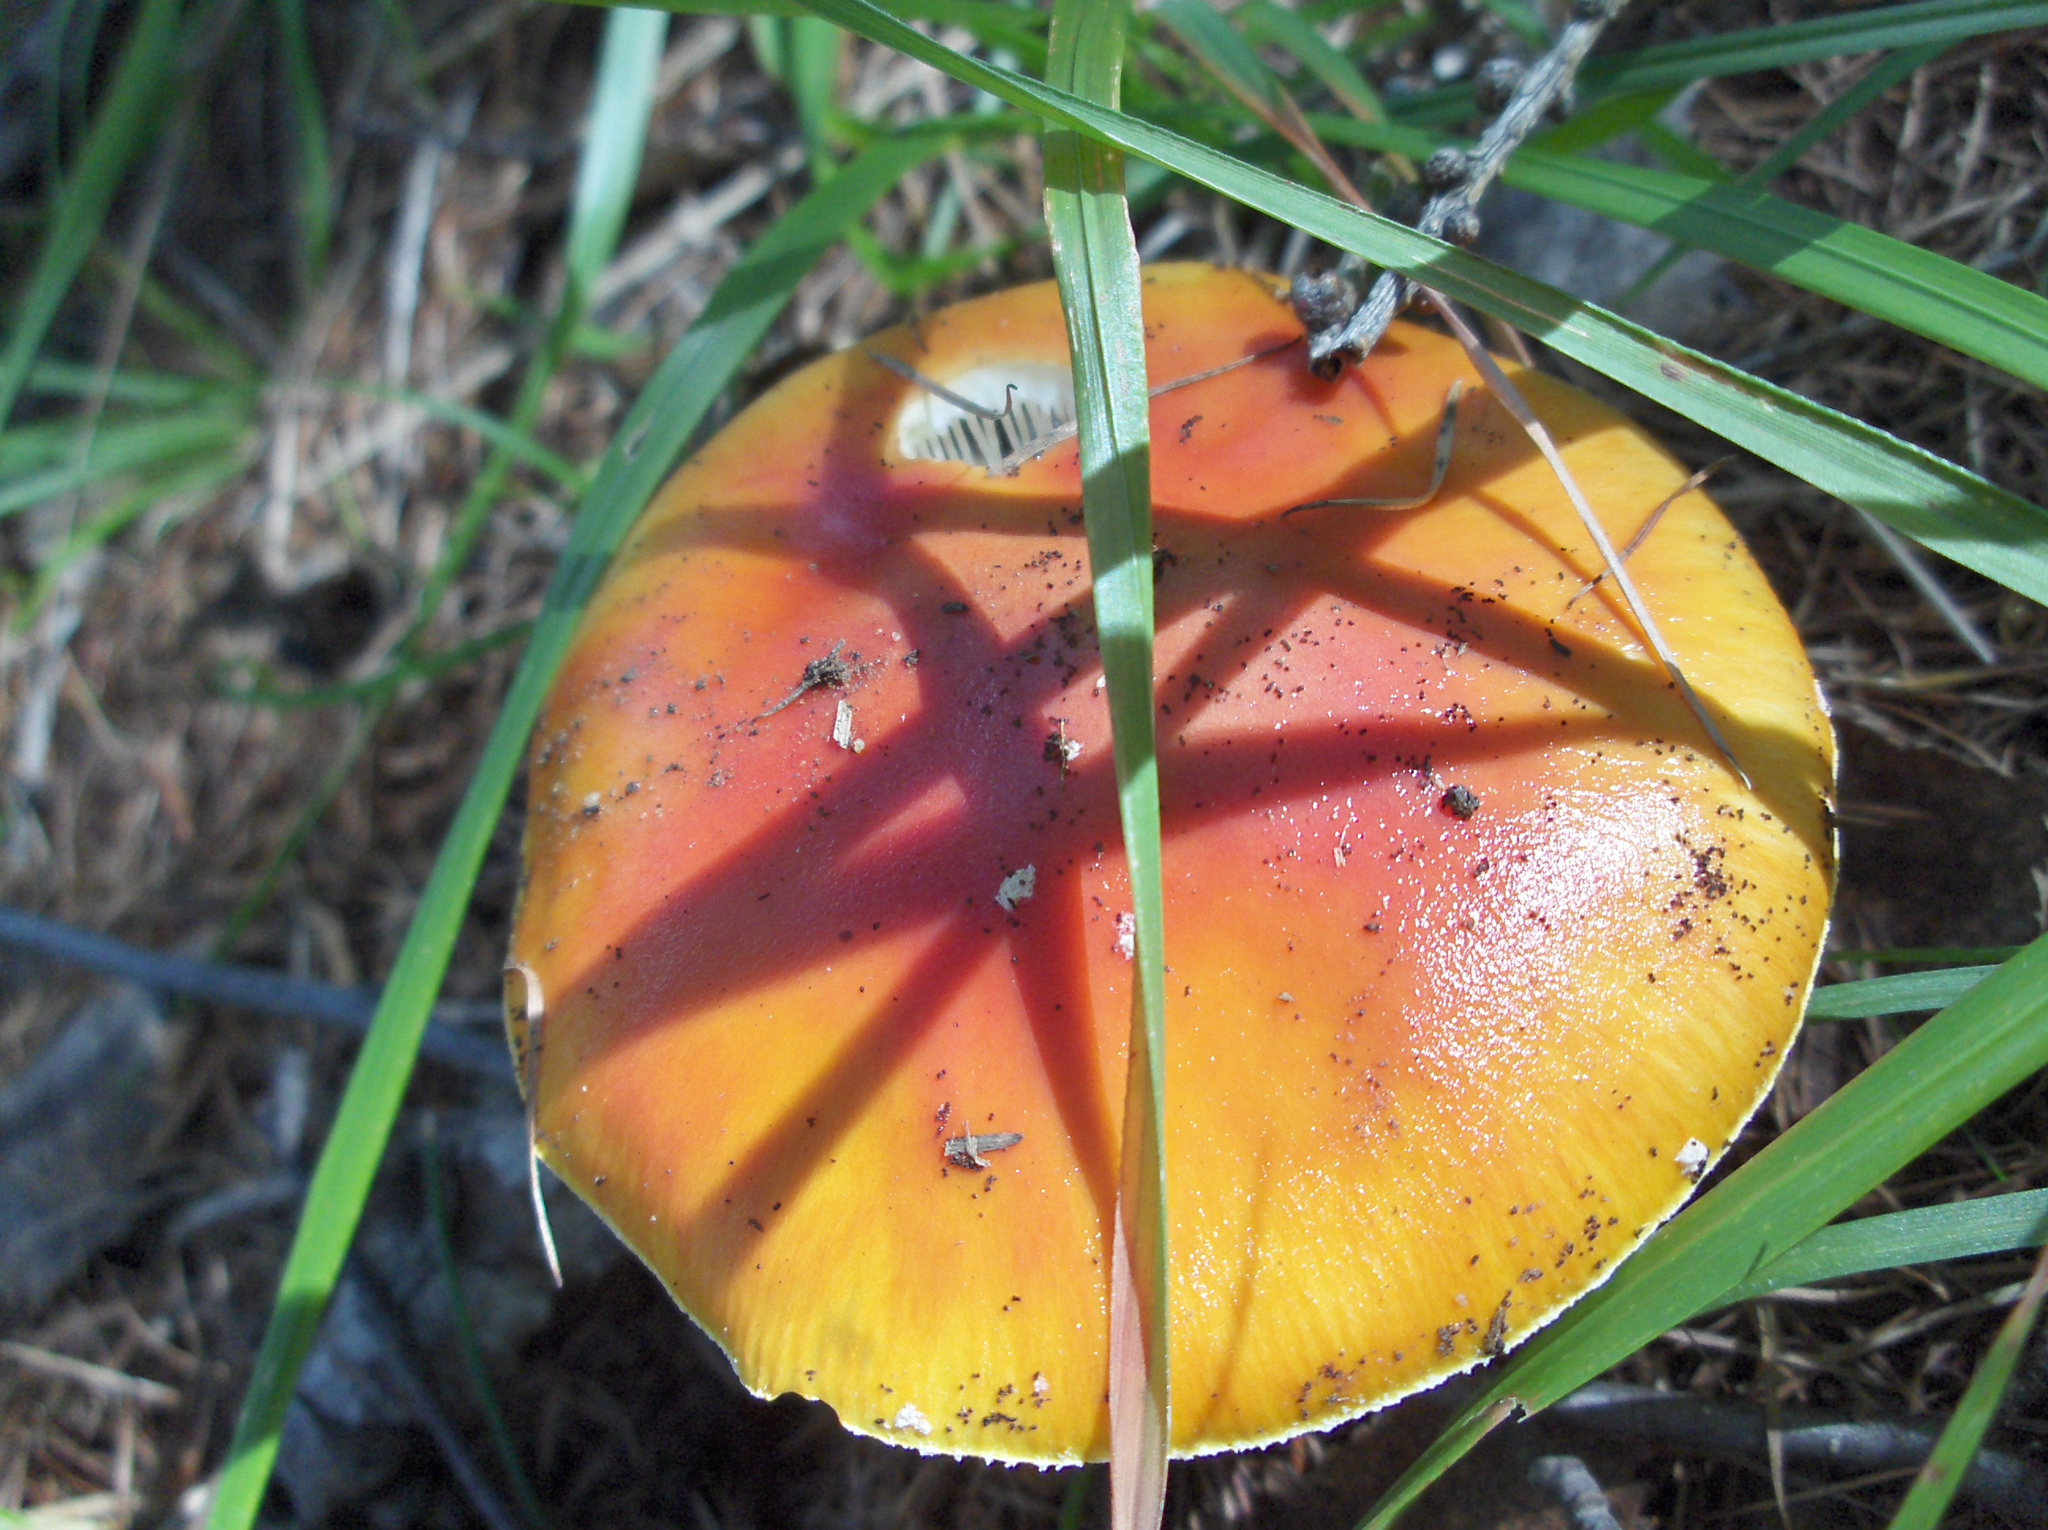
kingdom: Fungi
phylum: Basidiomycota
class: Agaricomycetes
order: Agaricales
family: Amanitaceae
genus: Amanita
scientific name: Amanita muscaria
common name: Fly agaric
